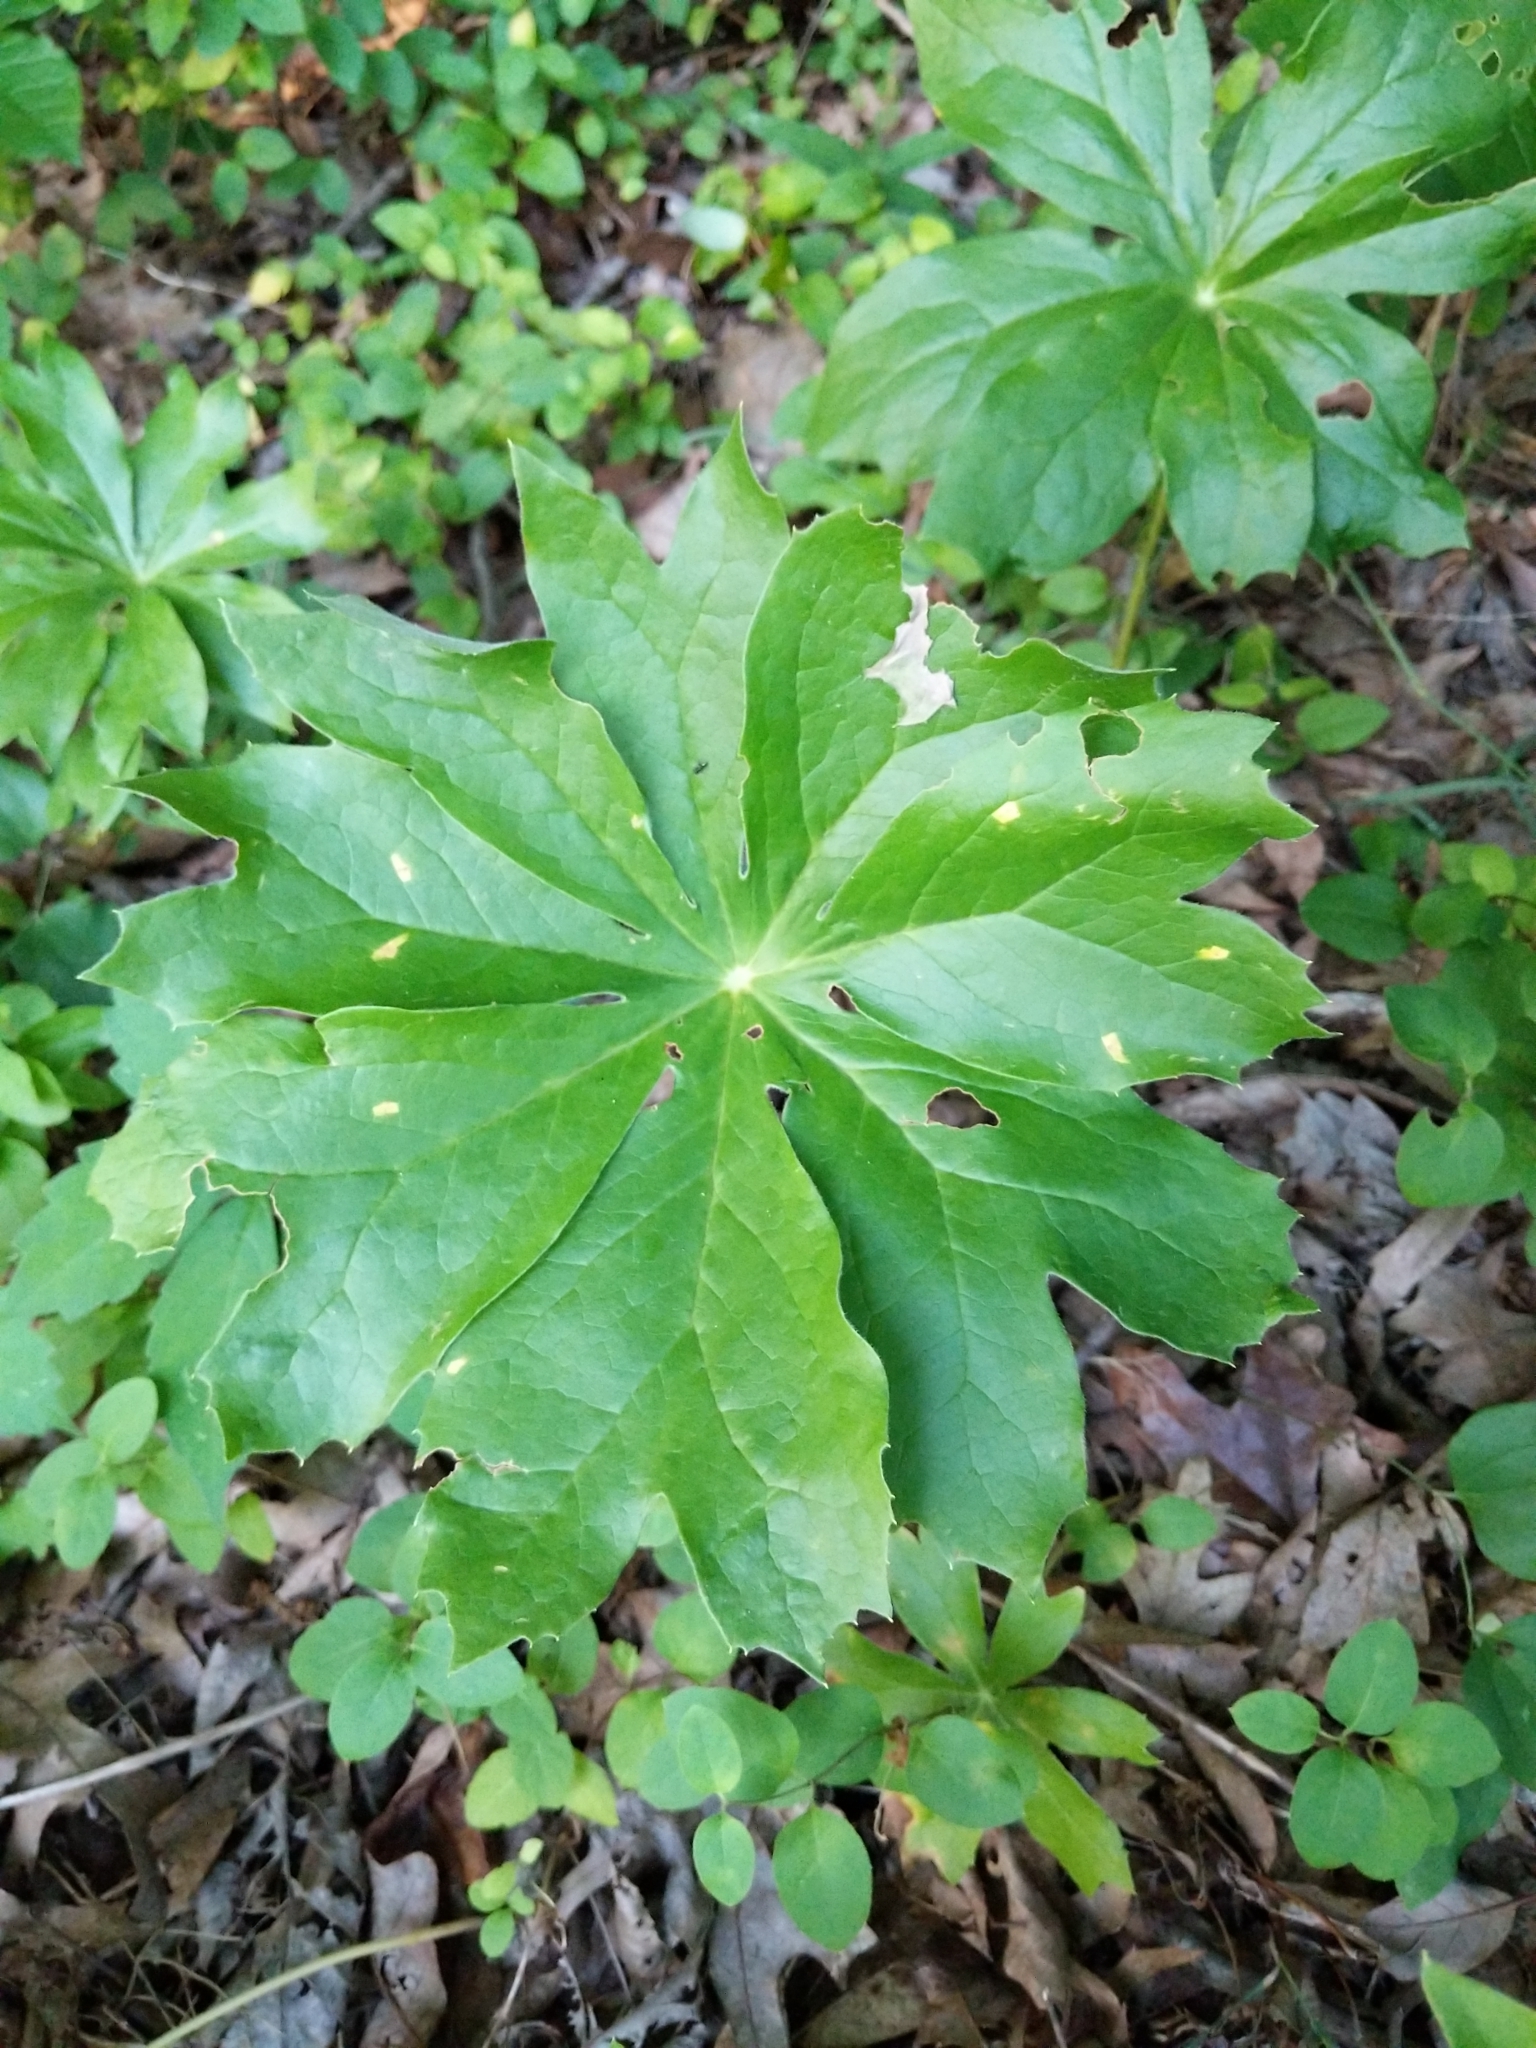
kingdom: Plantae
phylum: Tracheophyta
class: Magnoliopsida
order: Ranunculales
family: Berberidaceae
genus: Podophyllum
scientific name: Podophyllum peltatum
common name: Wild mandrake
